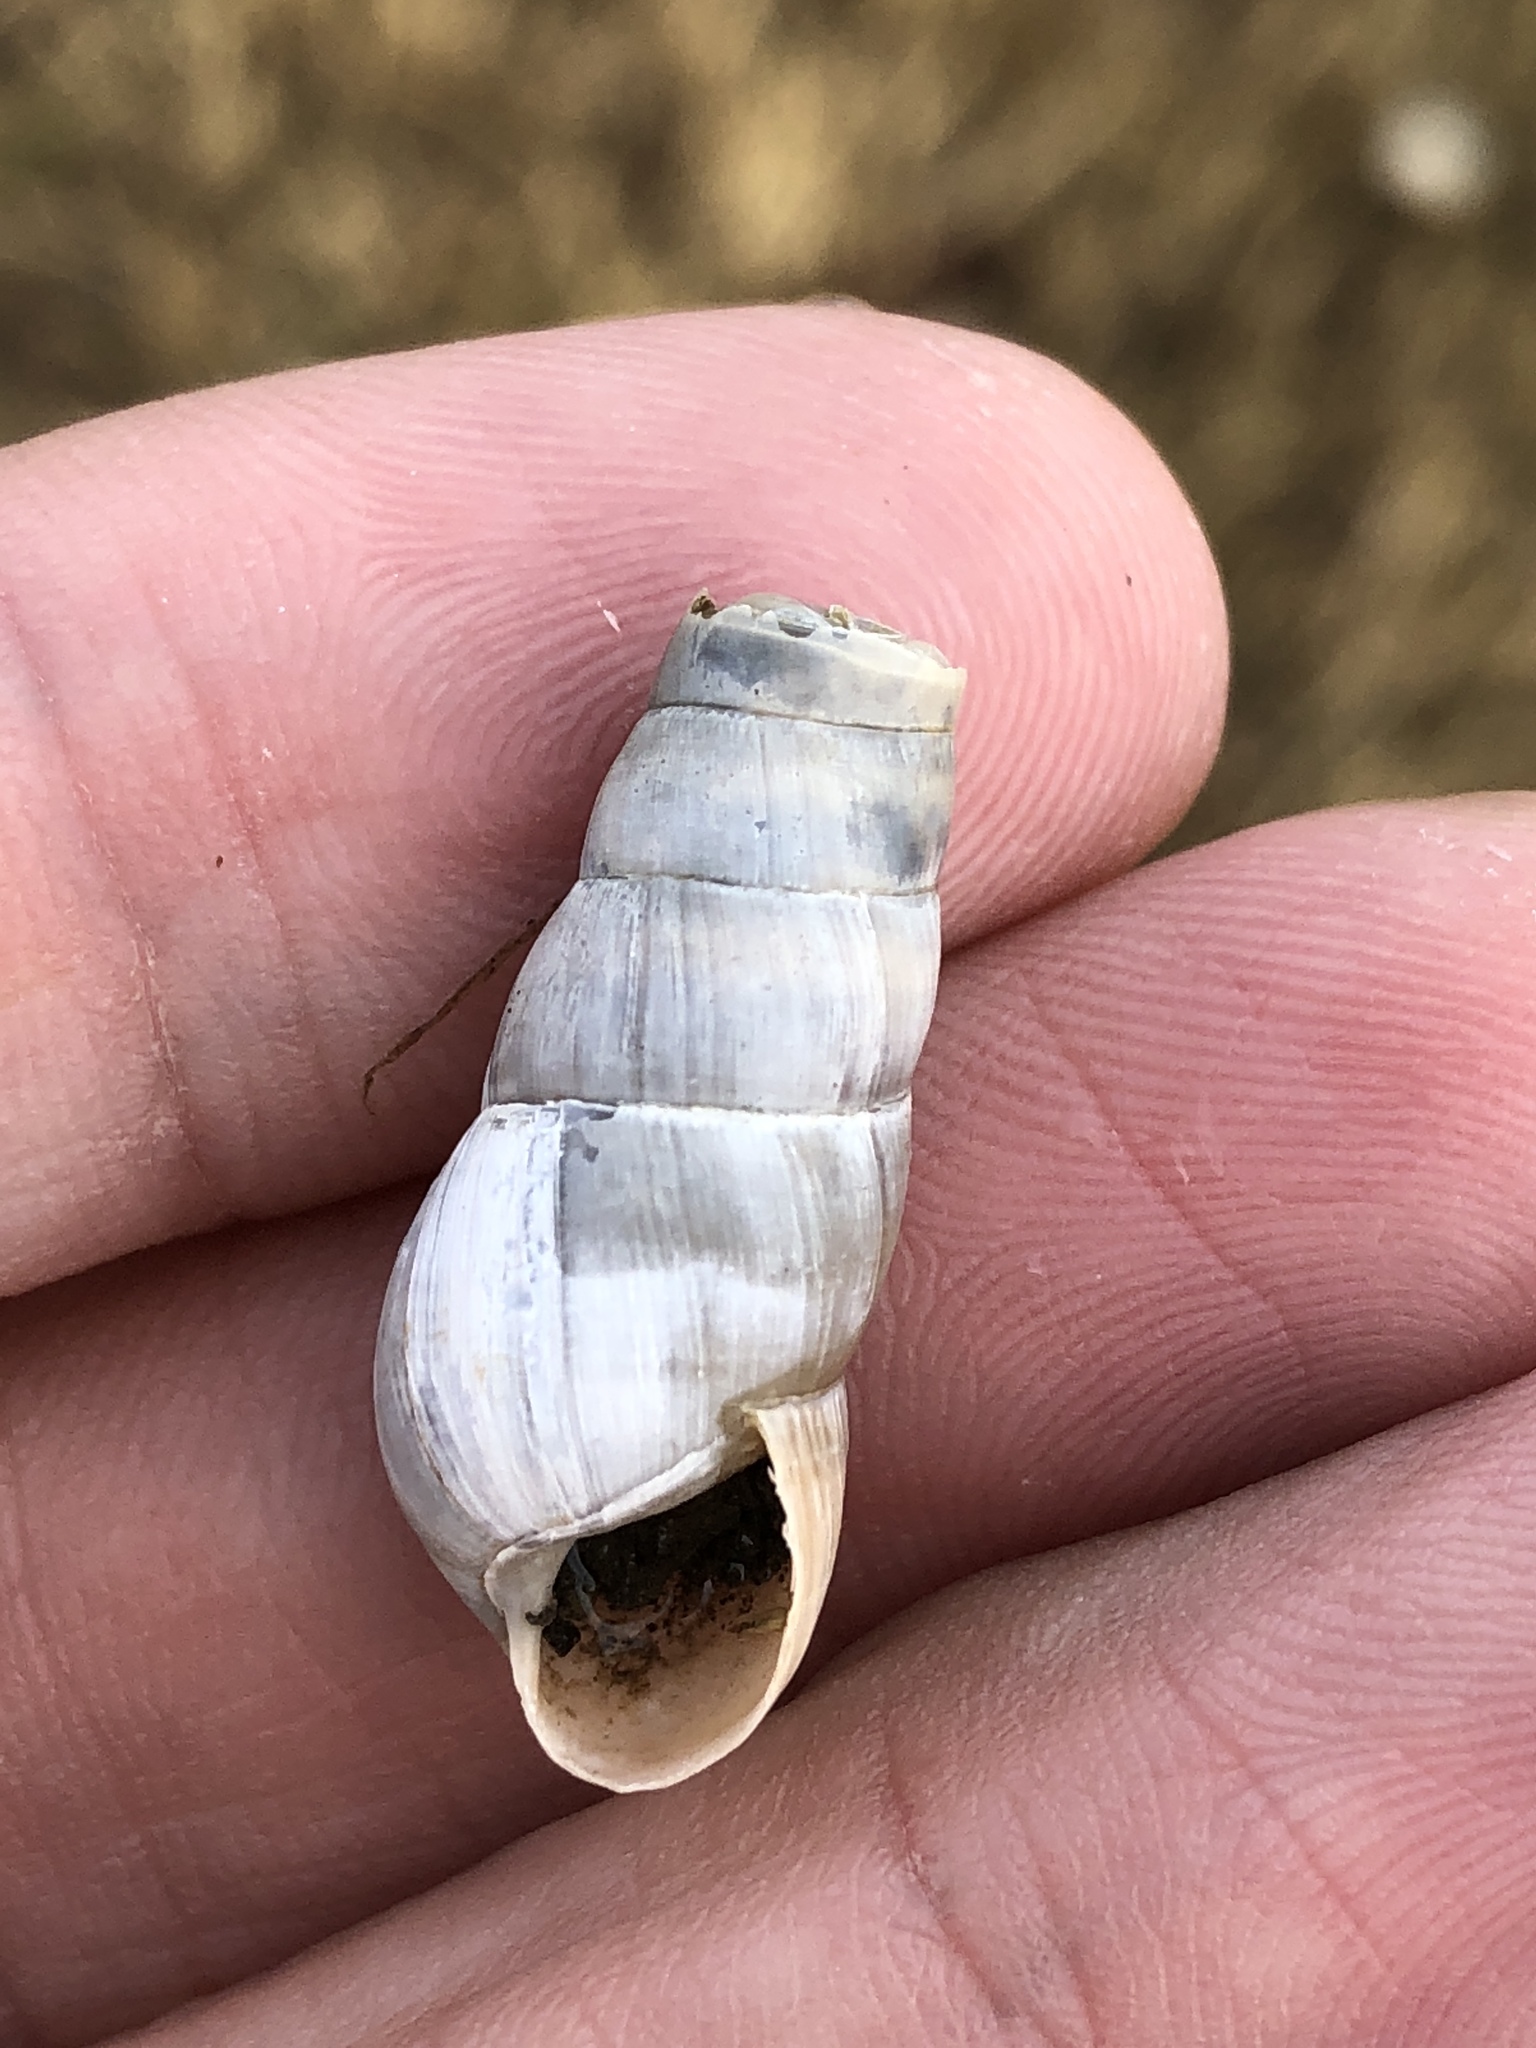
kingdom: Animalia
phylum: Mollusca
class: Gastropoda
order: Stylommatophora
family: Achatinidae
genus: Rumina
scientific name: Rumina decollata
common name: Decollate snail
